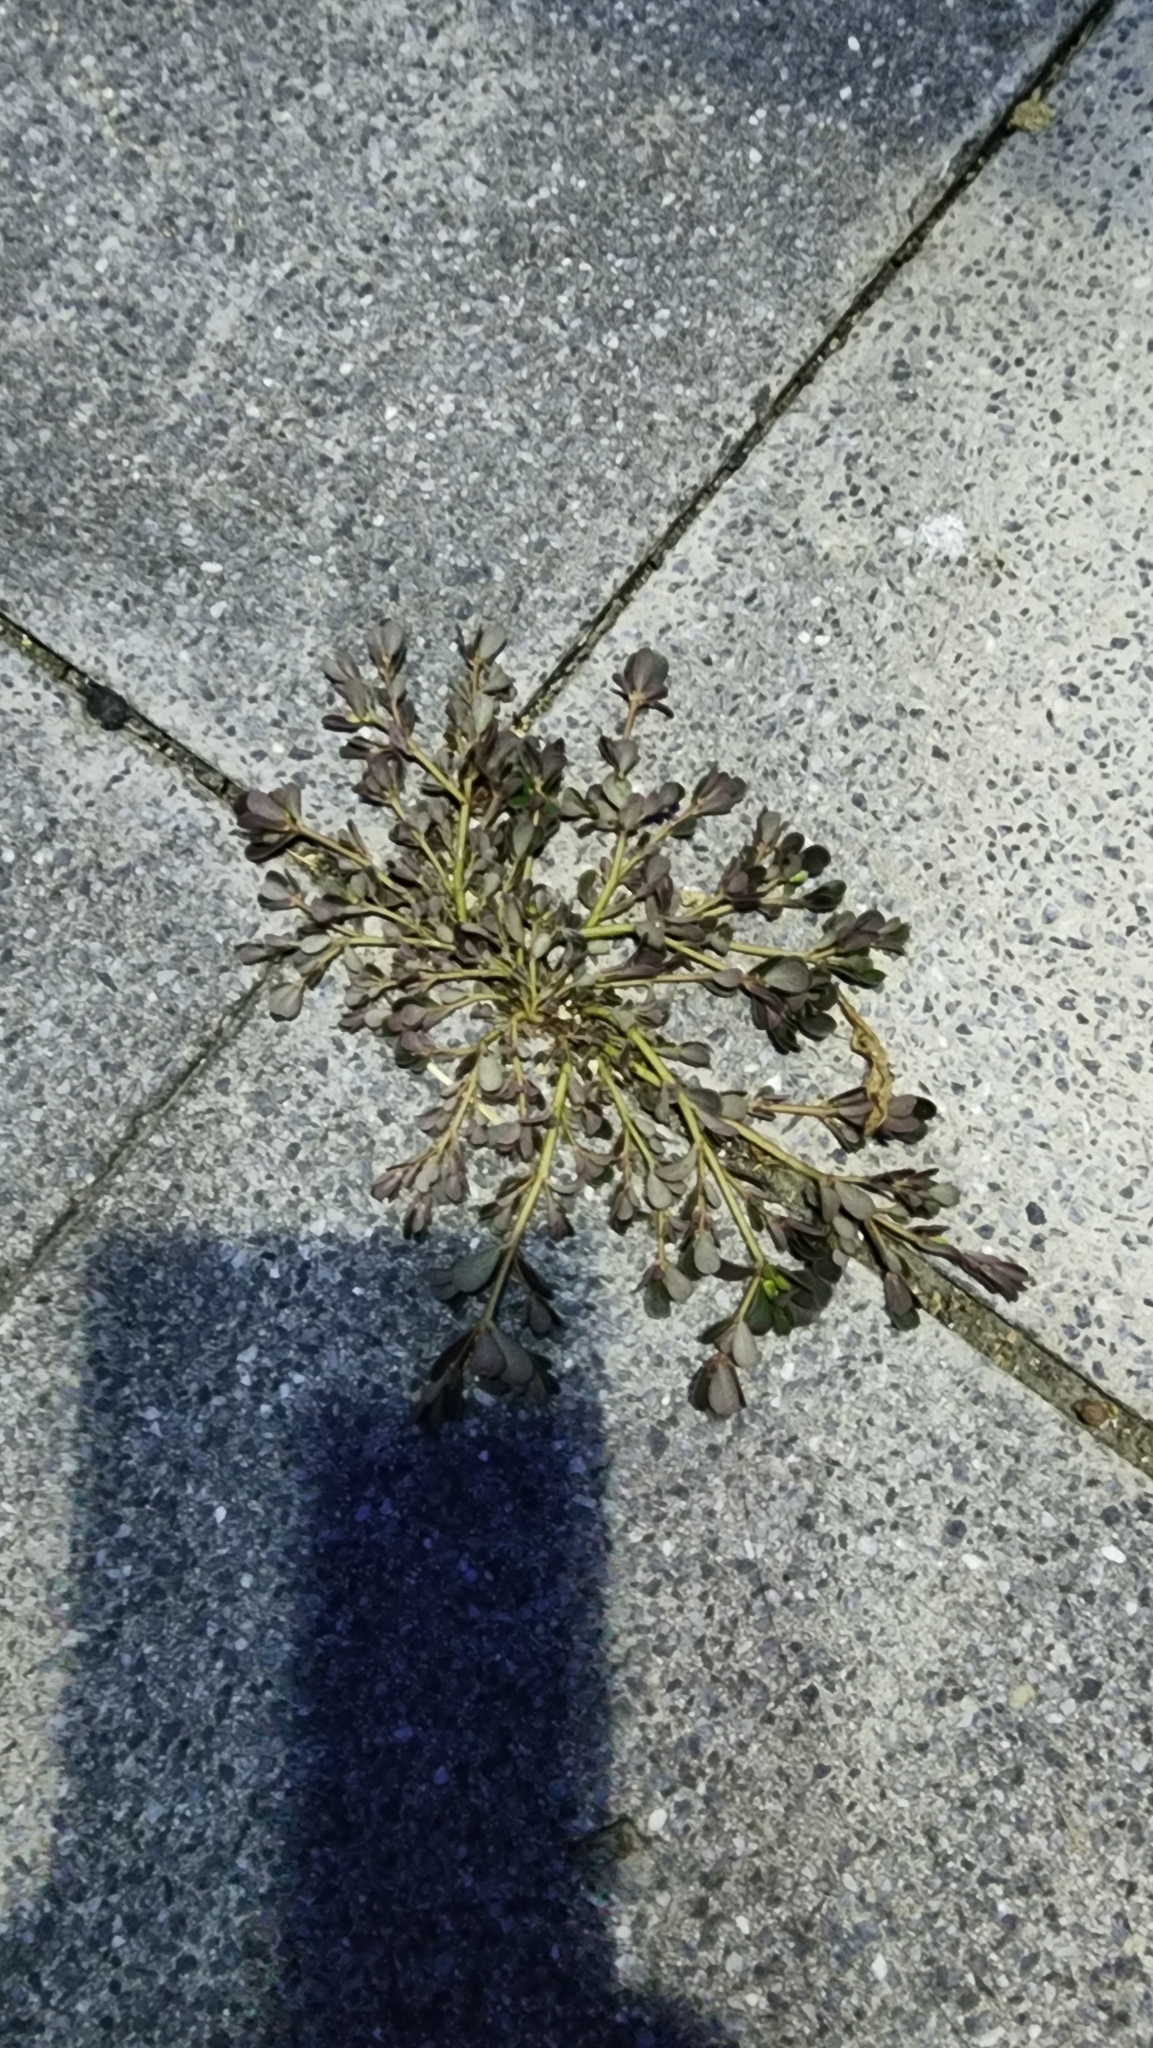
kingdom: Plantae
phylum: Tracheophyta
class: Magnoliopsida
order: Caryophyllales
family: Portulacaceae
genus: Portulaca
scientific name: Portulaca oleracea
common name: Common purslane
